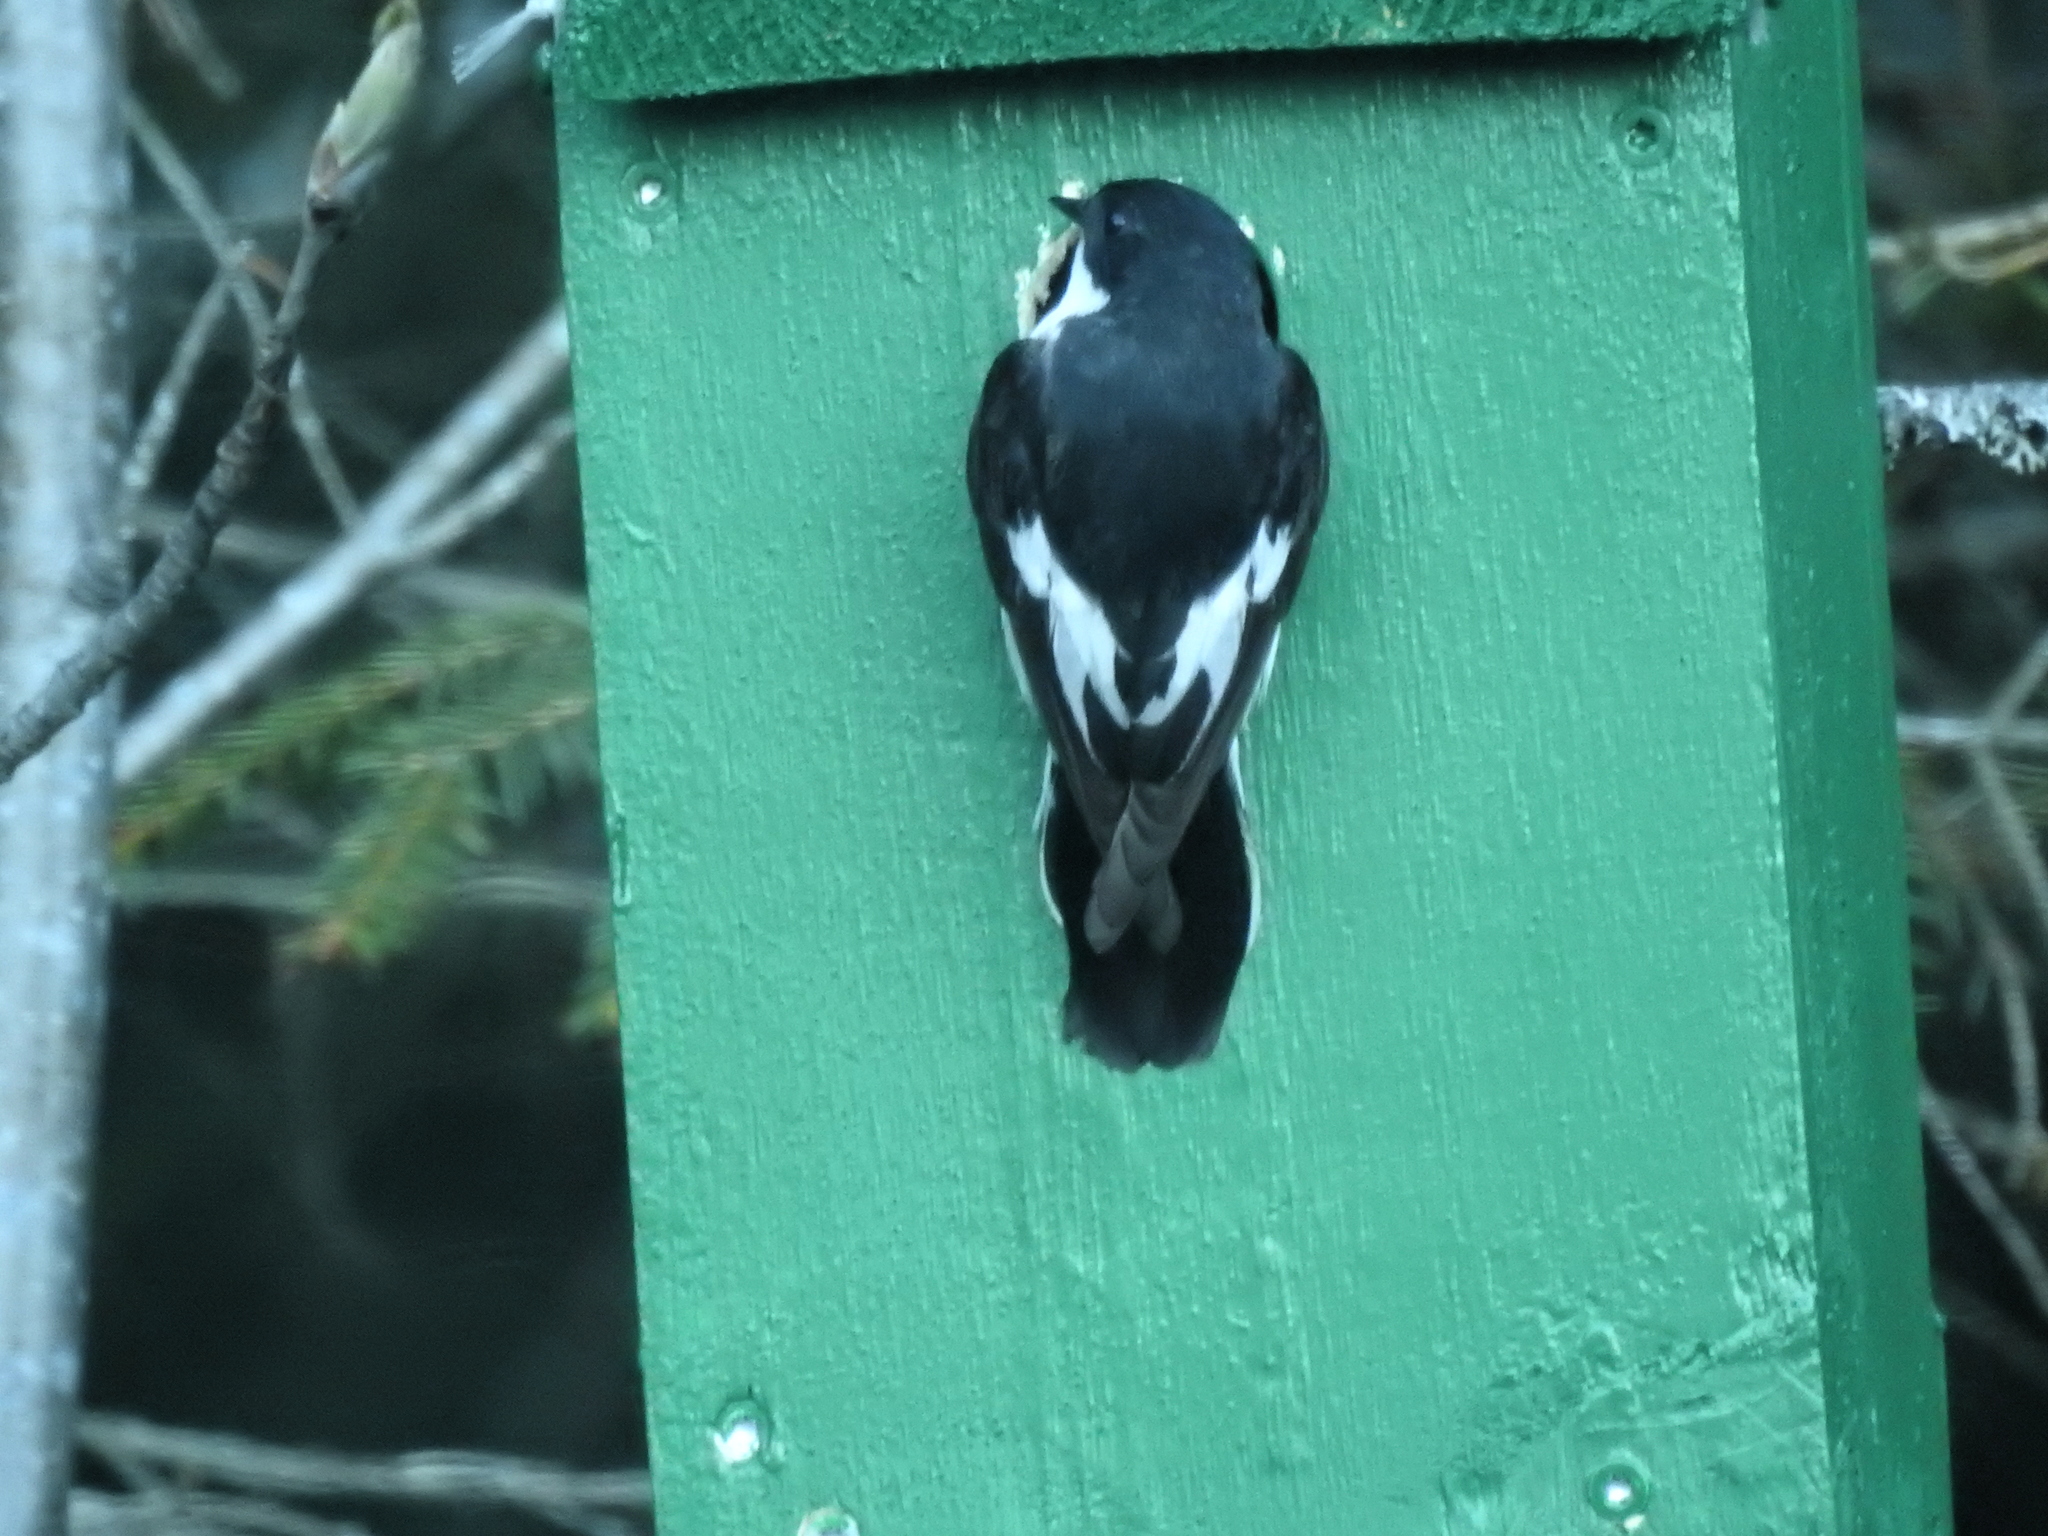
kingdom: Animalia
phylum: Chordata
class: Aves
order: Passeriformes
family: Muscicapidae
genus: Ficedula
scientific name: Ficedula hypoleuca
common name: European pied flycatcher
